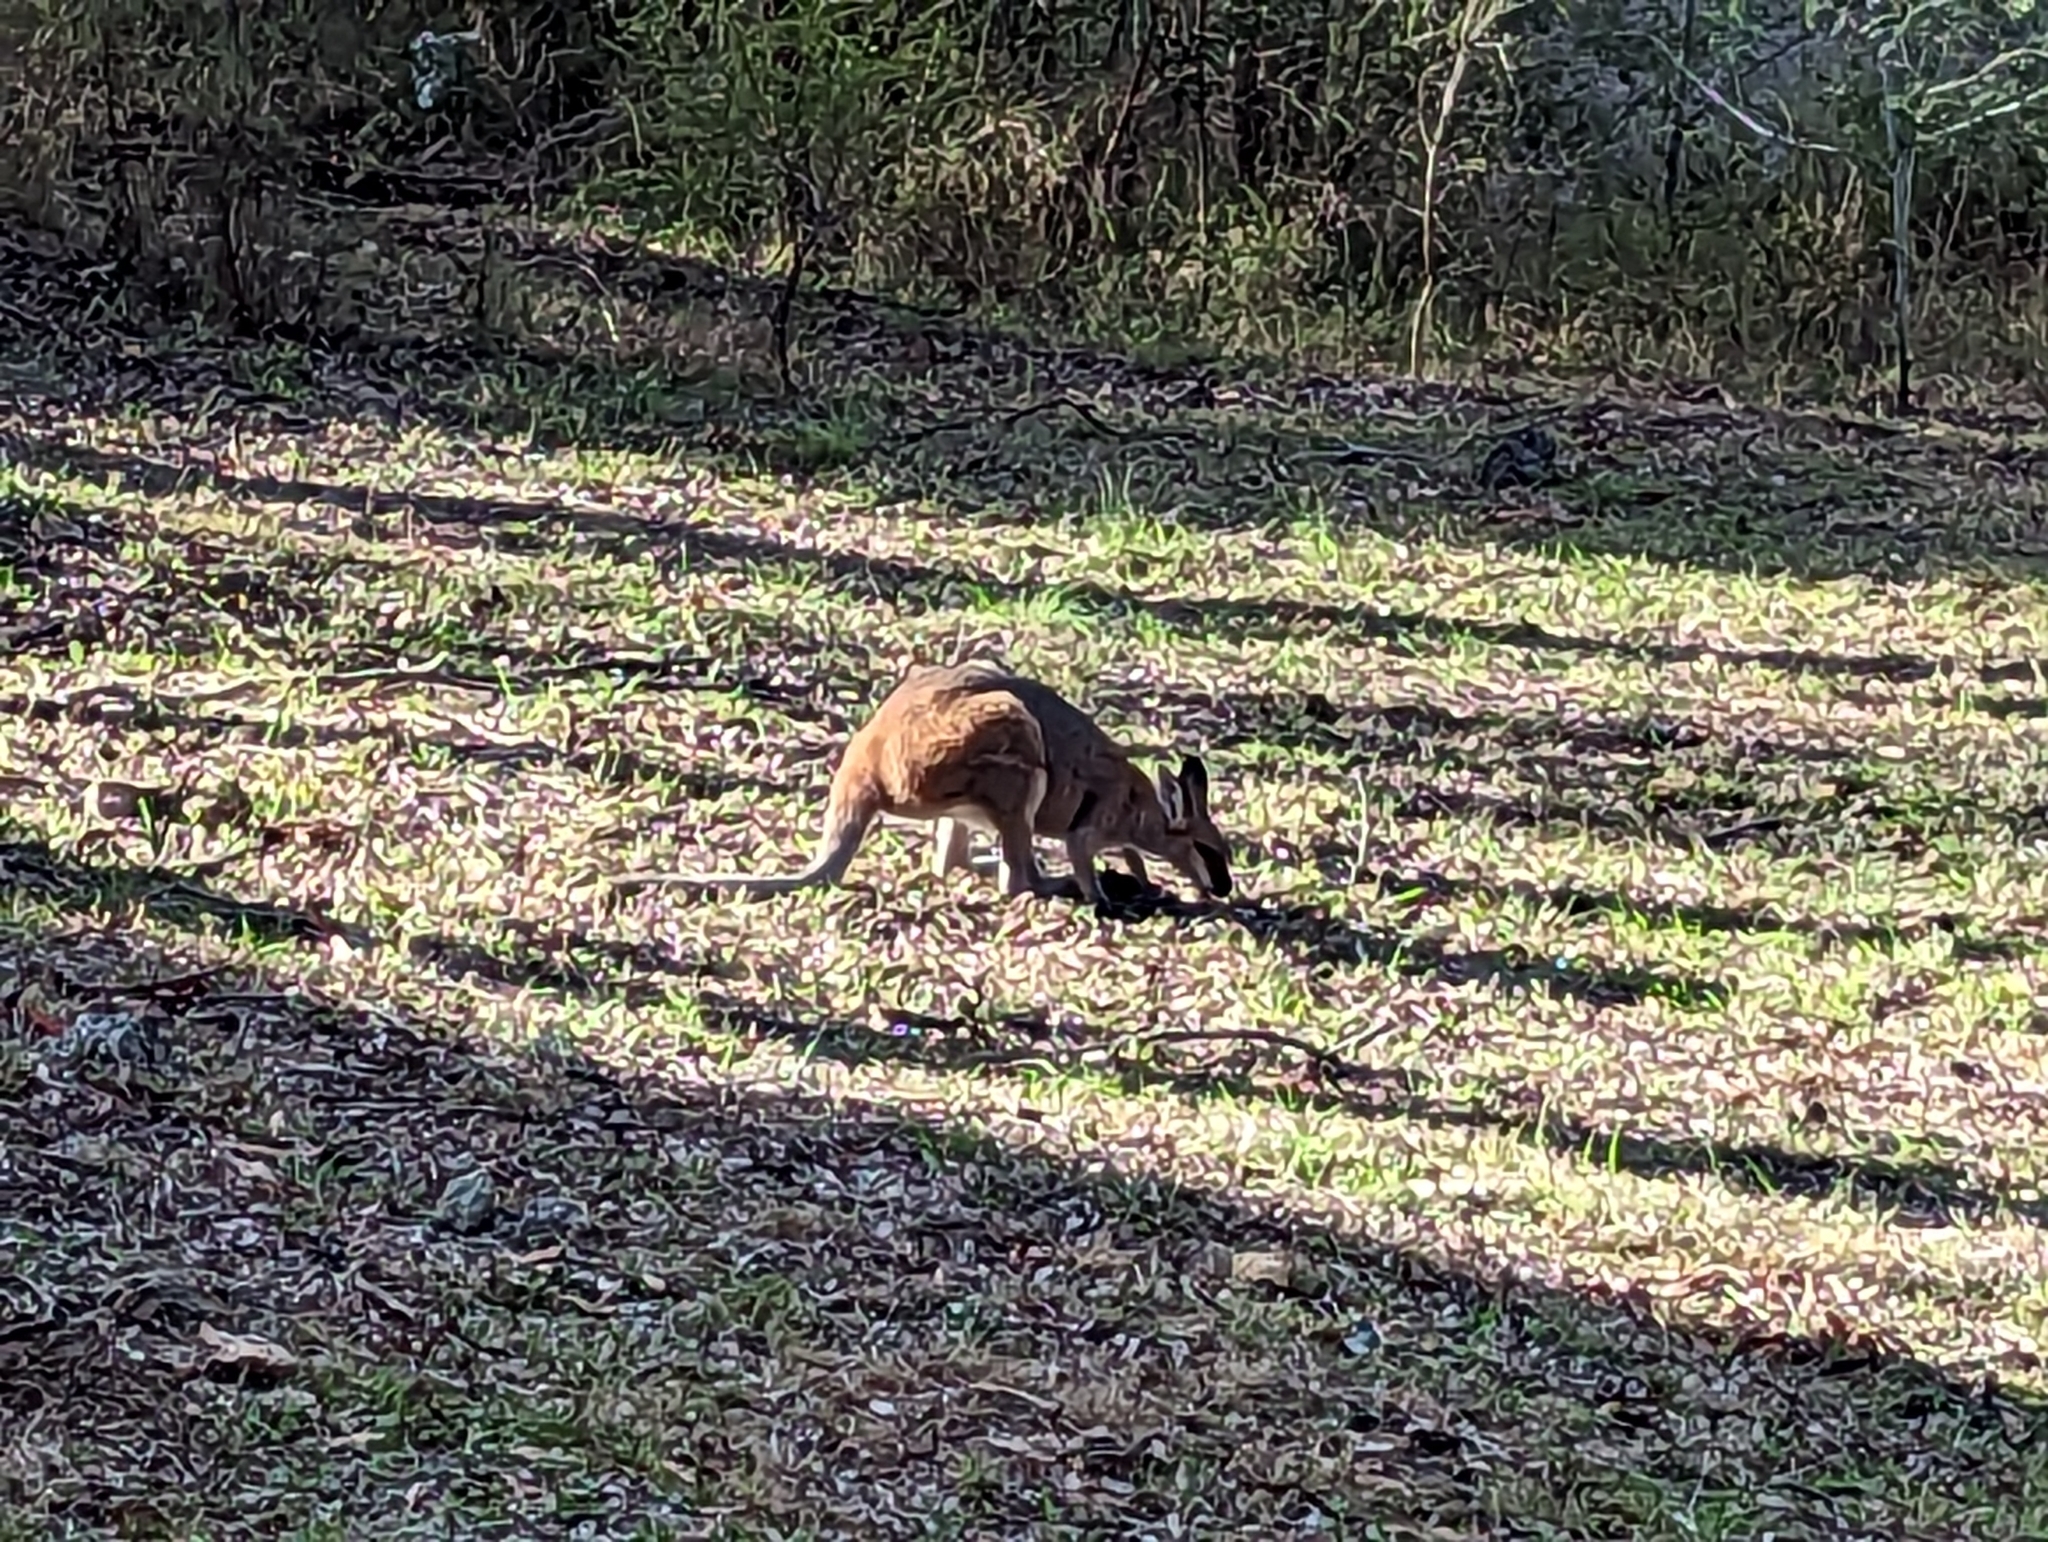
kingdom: Animalia
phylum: Chordata
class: Mammalia
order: Diprotodontia
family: Macropodidae
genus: Notamacropus
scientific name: Notamacropus rufogriseus
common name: Red-necked wallaby
